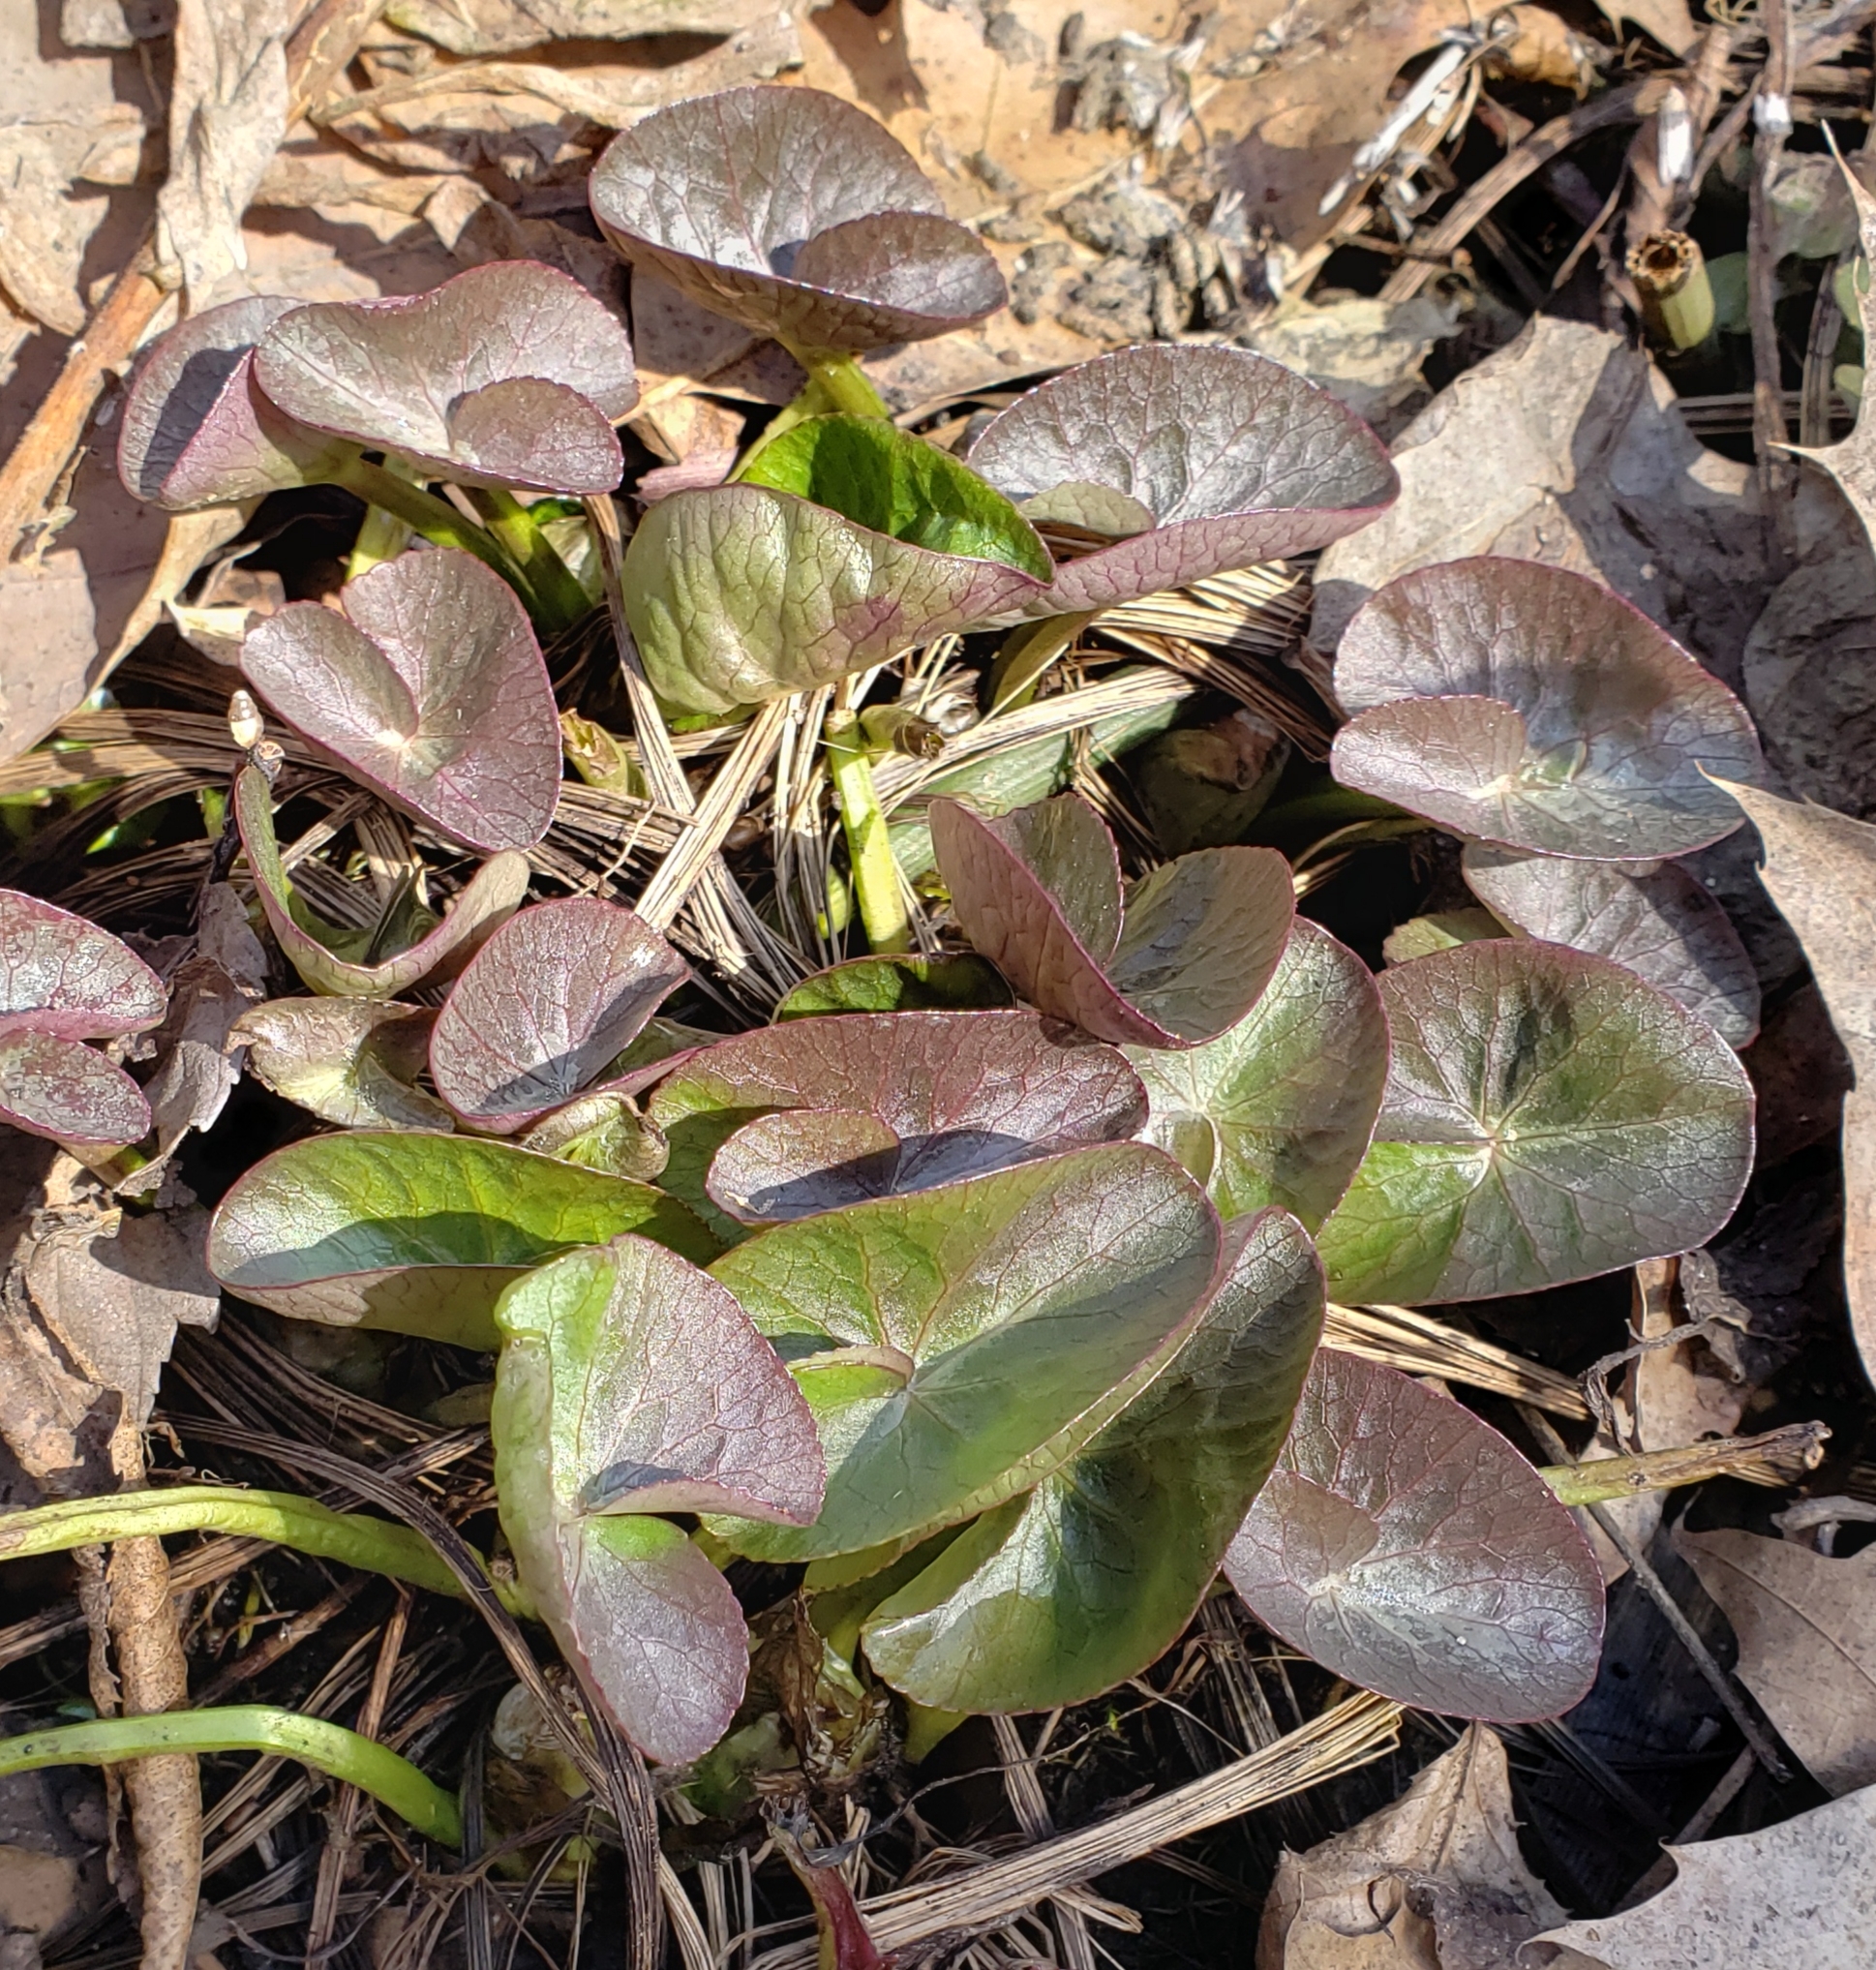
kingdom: Plantae
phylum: Tracheophyta
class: Magnoliopsida
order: Ranunculales
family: Ranunculaceae
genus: Caltha
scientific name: Caltha palustris
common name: Marsh marigold
